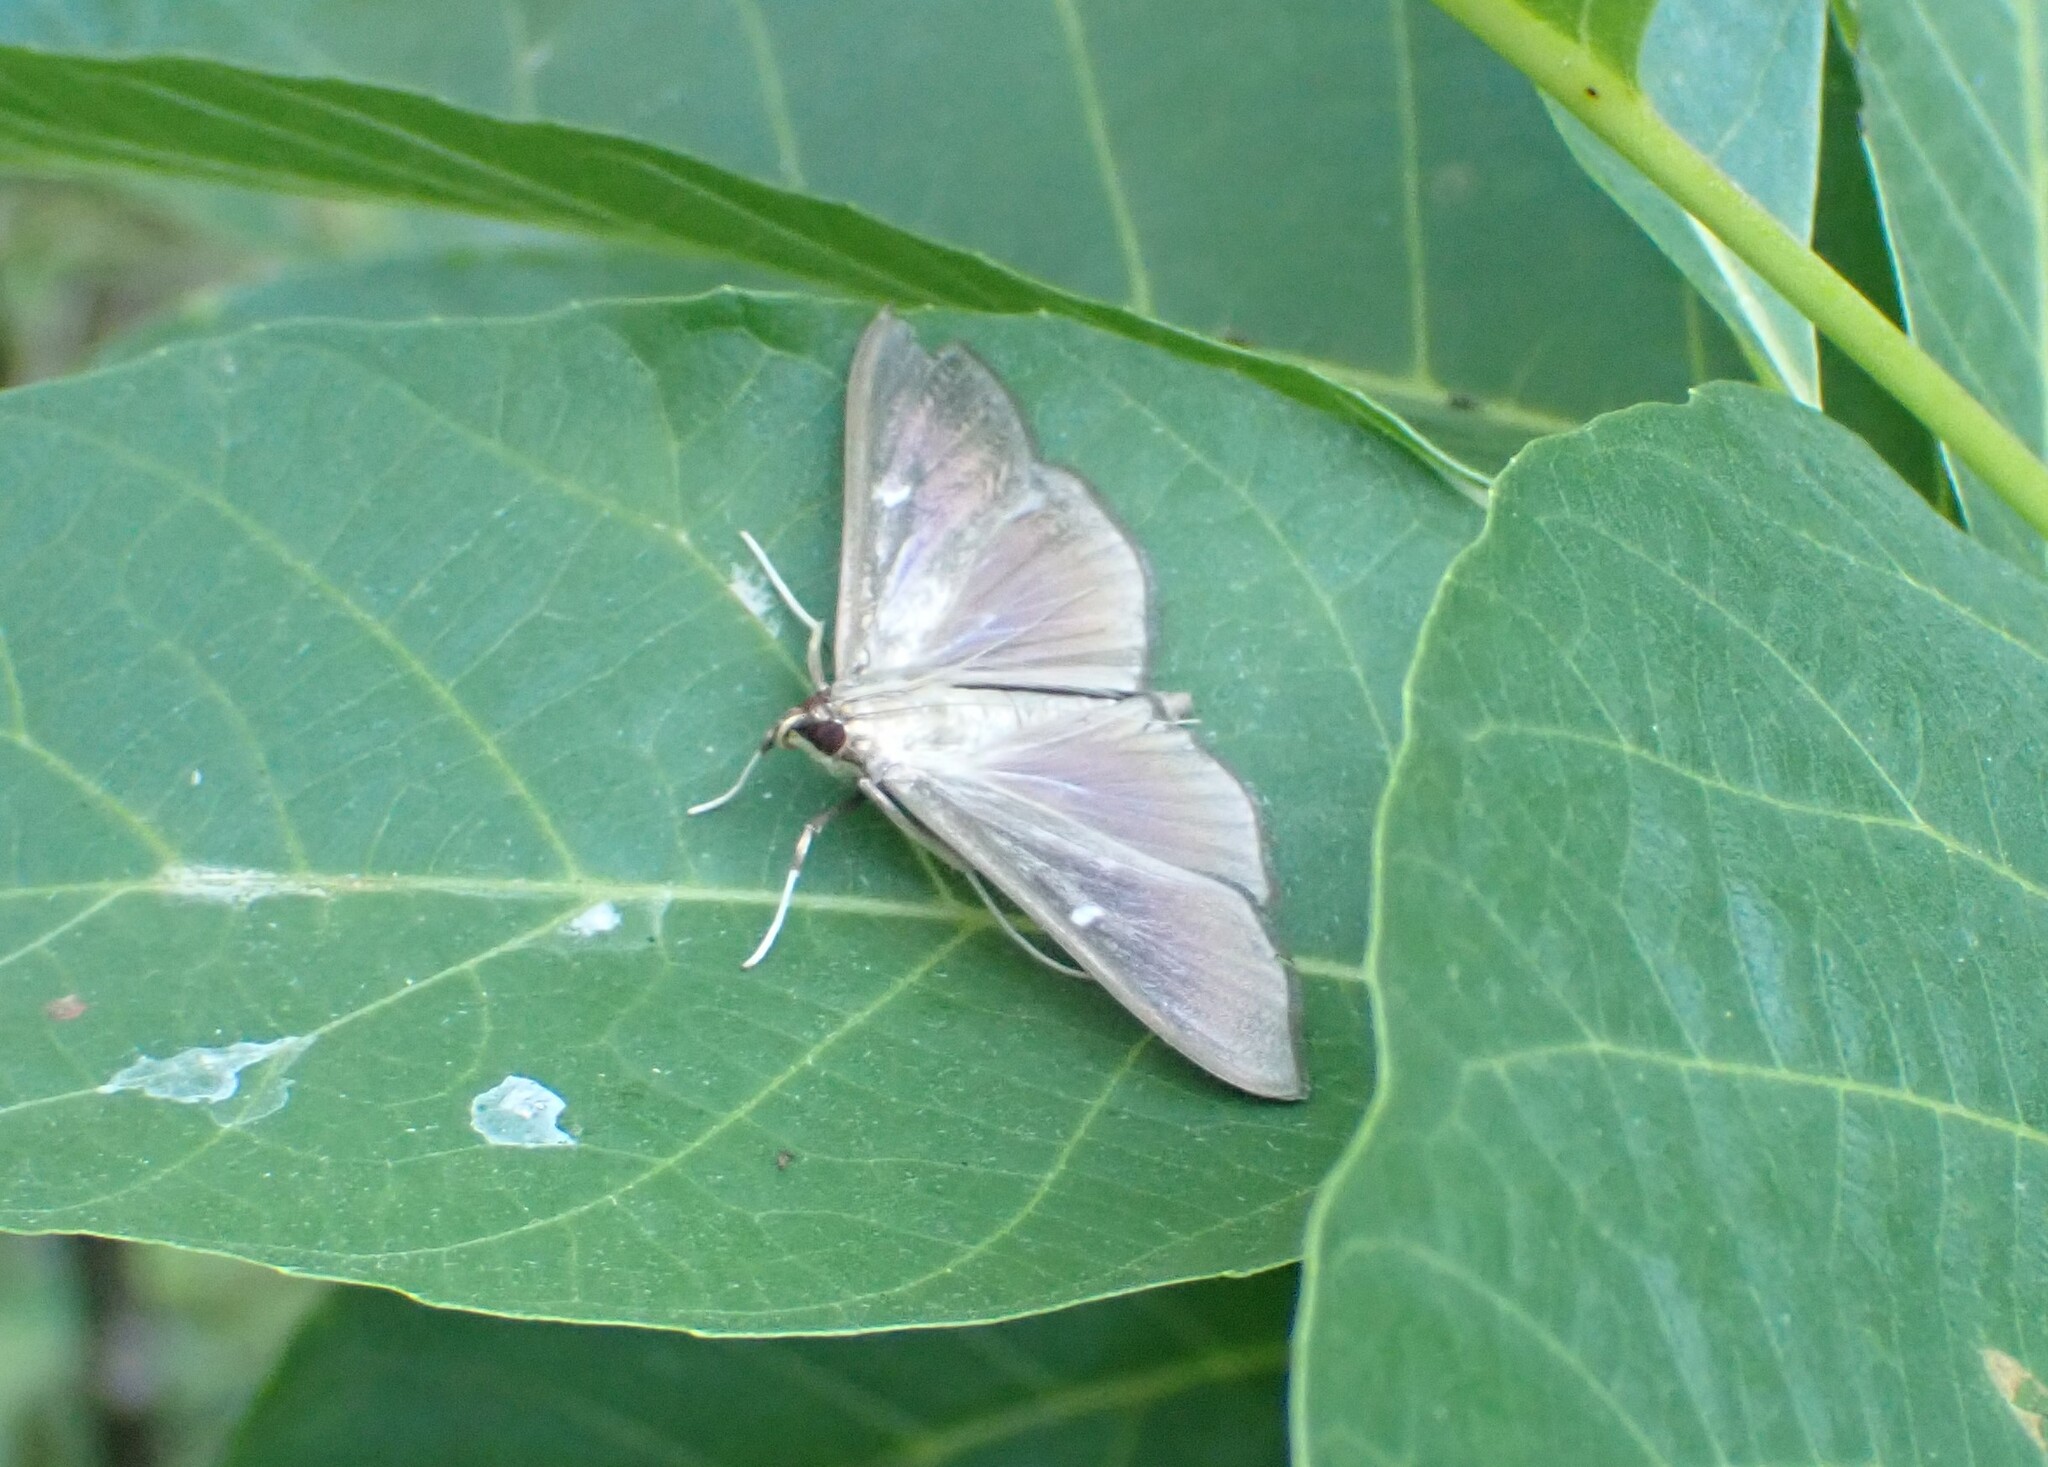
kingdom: Animalia
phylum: Arthropoda
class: Insecta
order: Lepidoptera
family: Crambidae
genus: Cydalima
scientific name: Cydalima perspectalis
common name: Box tree moth
